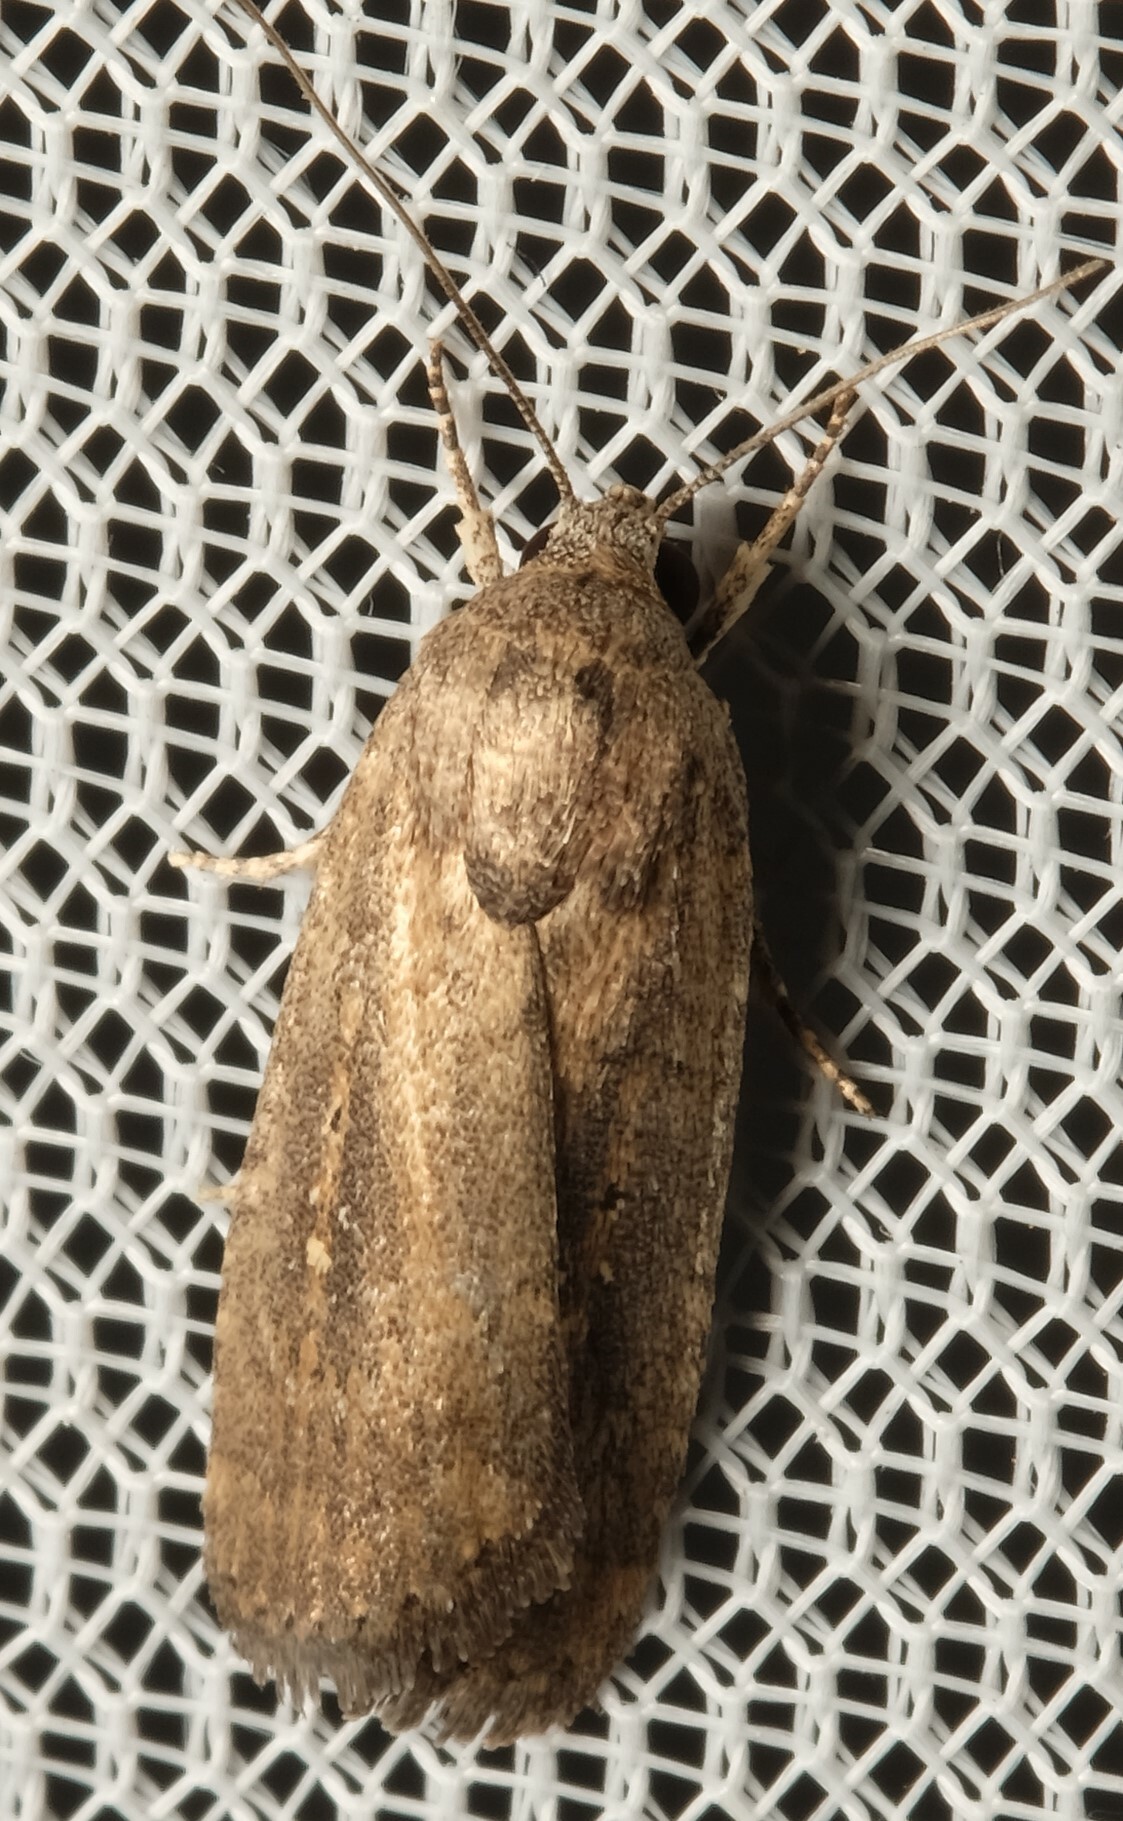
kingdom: Animalia
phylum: Arthropoda
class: Insecta
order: Lepidoptera
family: Noctuidae
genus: Athetis
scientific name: Athetis tenuis
